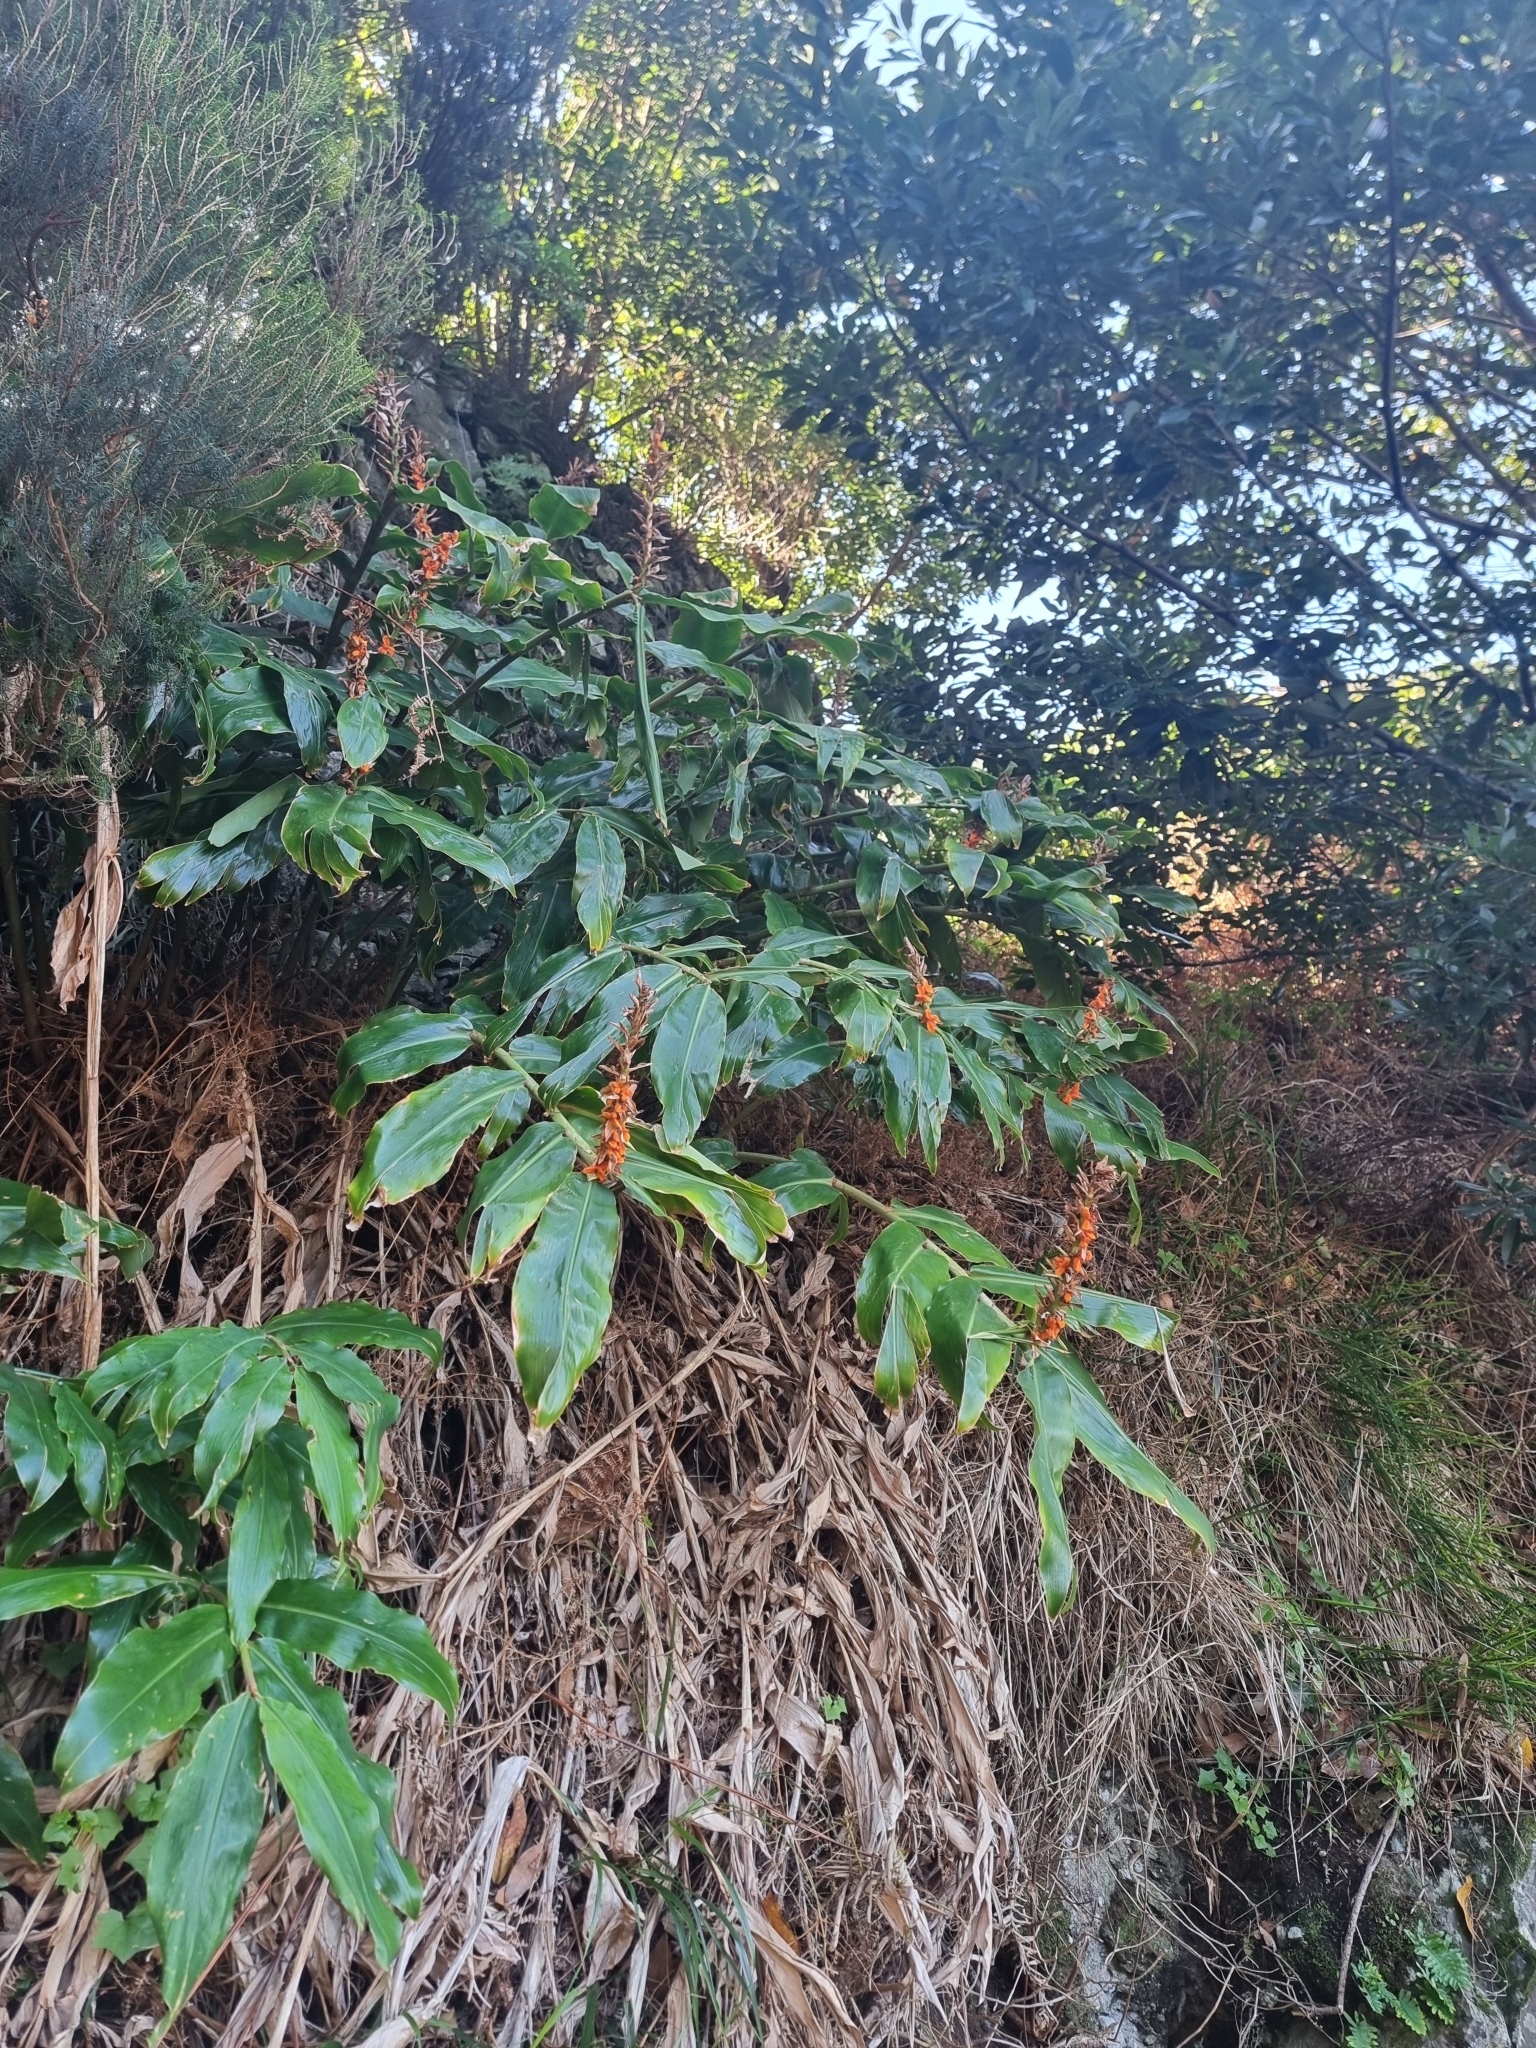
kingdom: Plantae
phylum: Tracheophyta
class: Liliopsida
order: Zingiberales
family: Zingiberaceae
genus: Hedychium
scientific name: Hedychium gardnerianum
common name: Himalayan ginger
